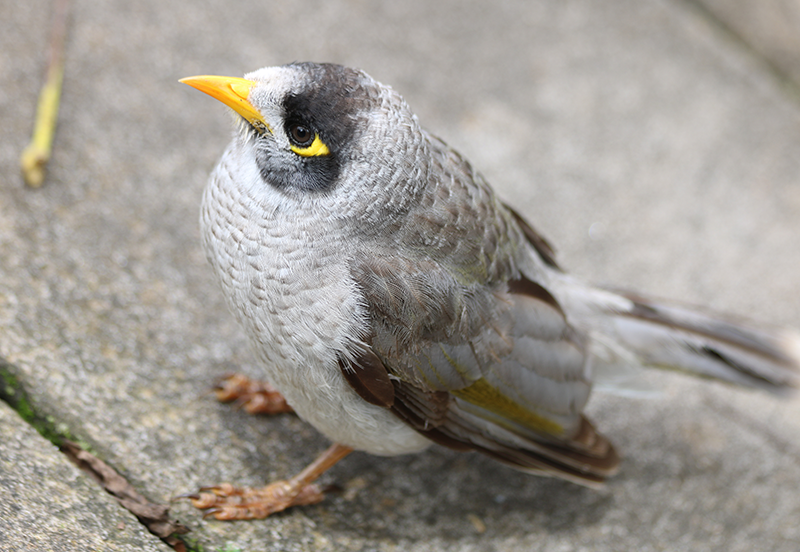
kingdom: Animalia
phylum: Chordata
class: Aves
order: Passeriformes
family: Meliphagidae
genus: Manorina
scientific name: Manorina melanocephala
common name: Noisy miner
